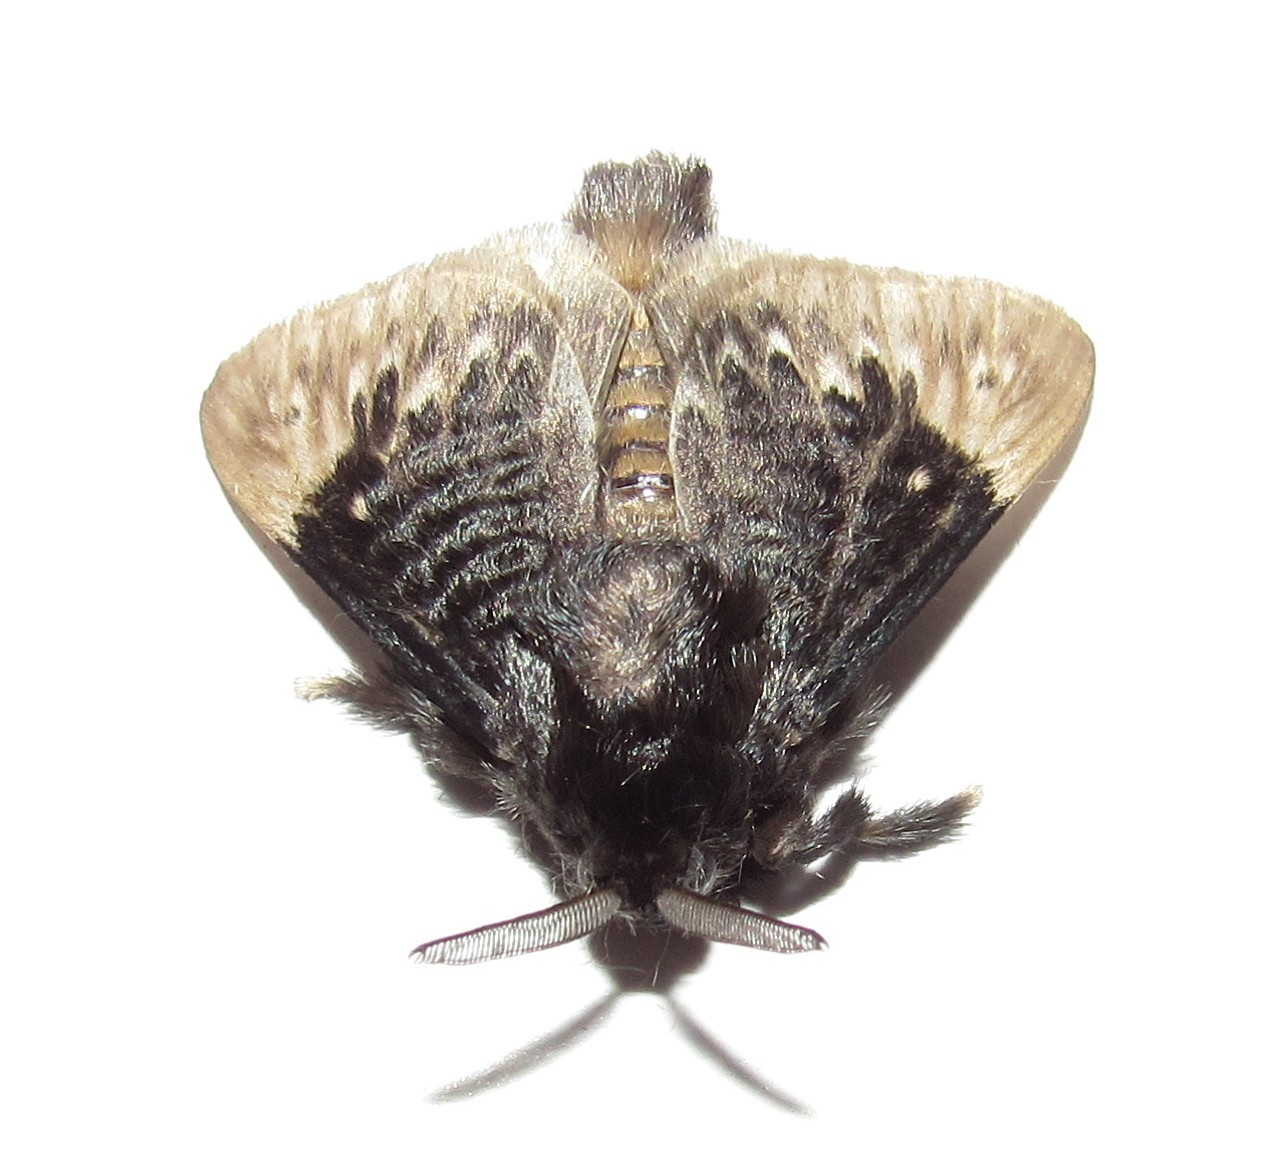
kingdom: Animalia
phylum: Arthropoda
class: Insecta
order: Lepidoptera
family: Megalopygidae
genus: Podalia
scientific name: Podalia thanatos
